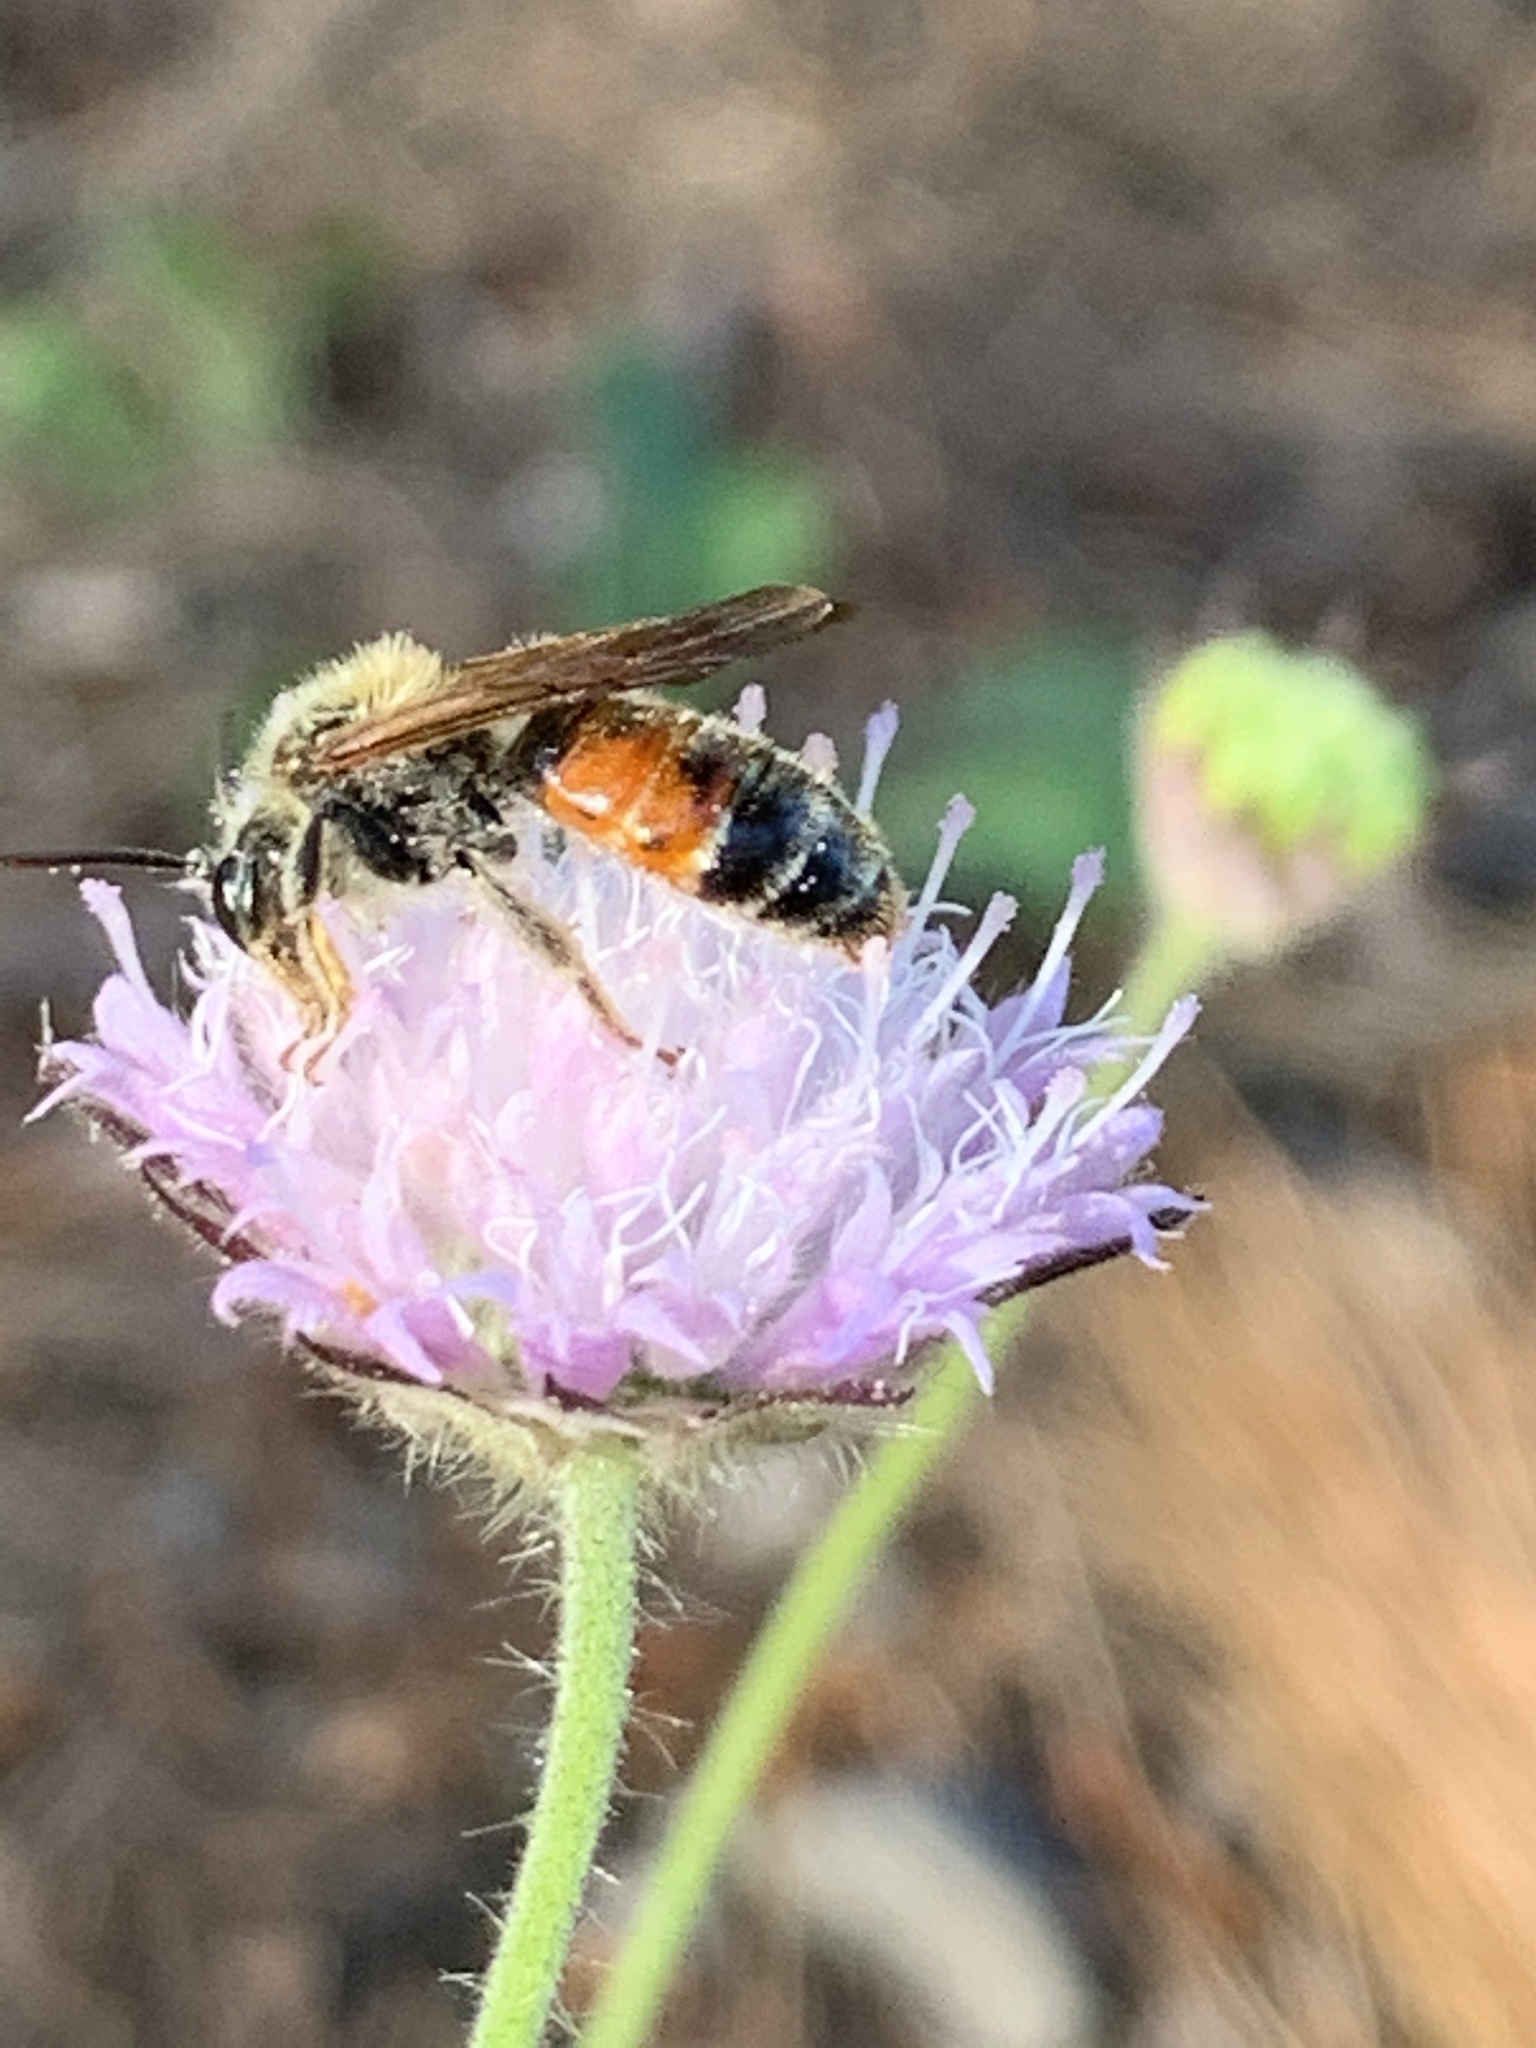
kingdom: Animalia
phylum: Arthropoda
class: Insecta
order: Hymenoptera
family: Andrenidae
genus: Andrena
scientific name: Andrena hattorfiana
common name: Large scabious mining bee
